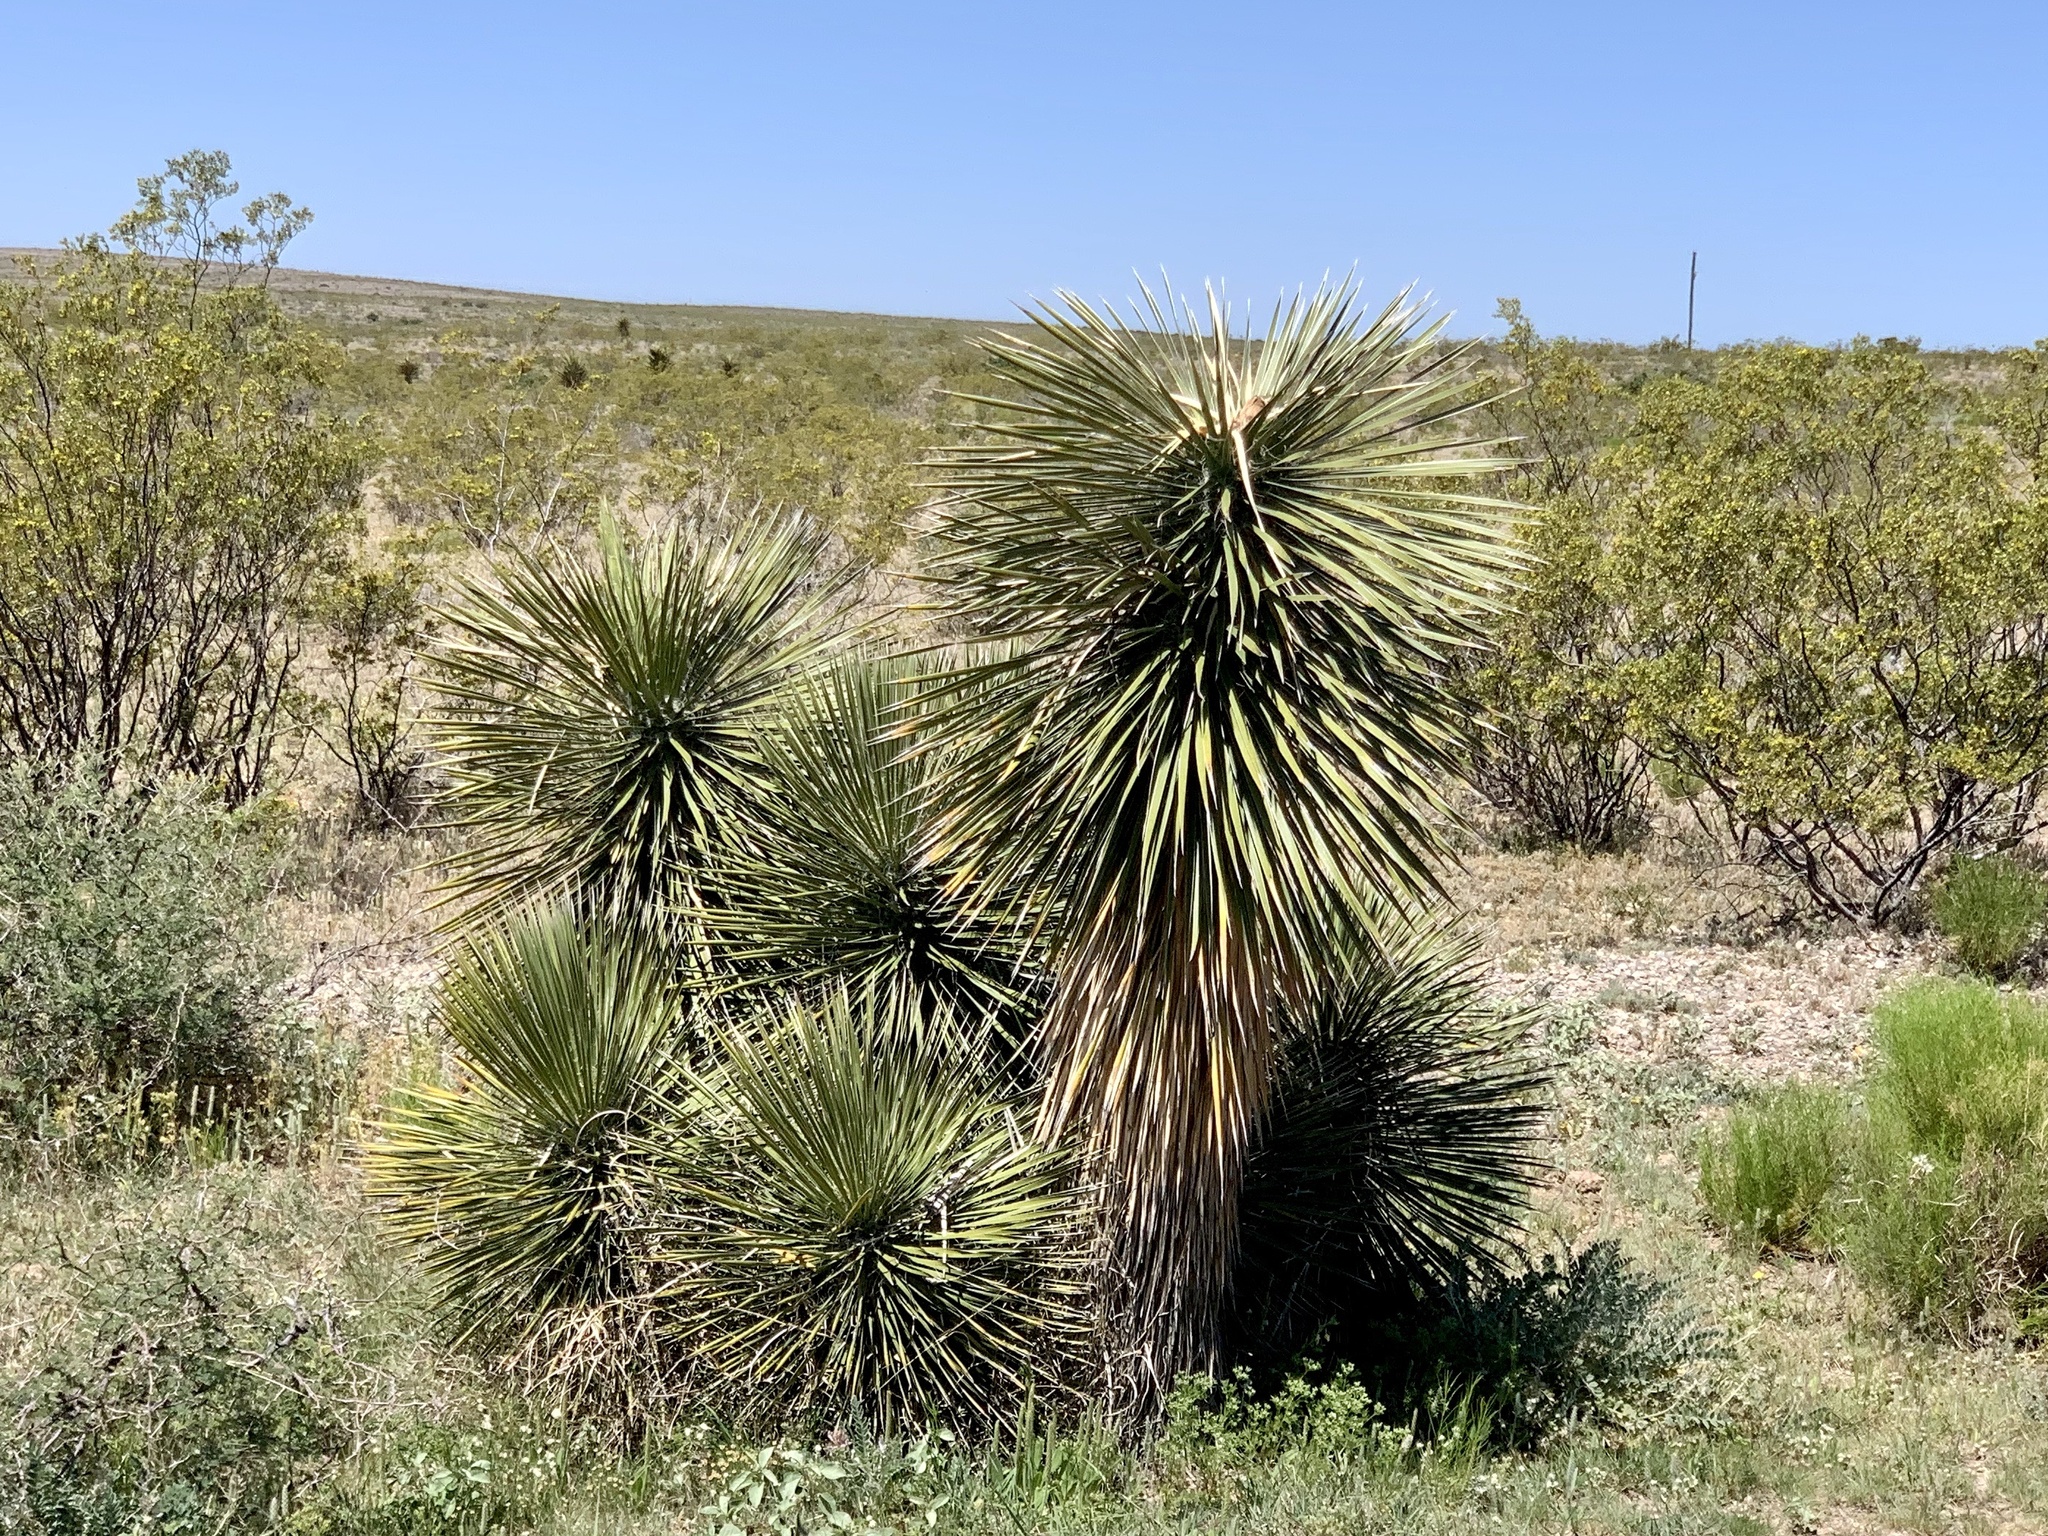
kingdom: Plantae
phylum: Tracheophyta
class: Liliopsida
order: Asparagales
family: Asparagaceae
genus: Yucca
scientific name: Yucca elata
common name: Palmella
